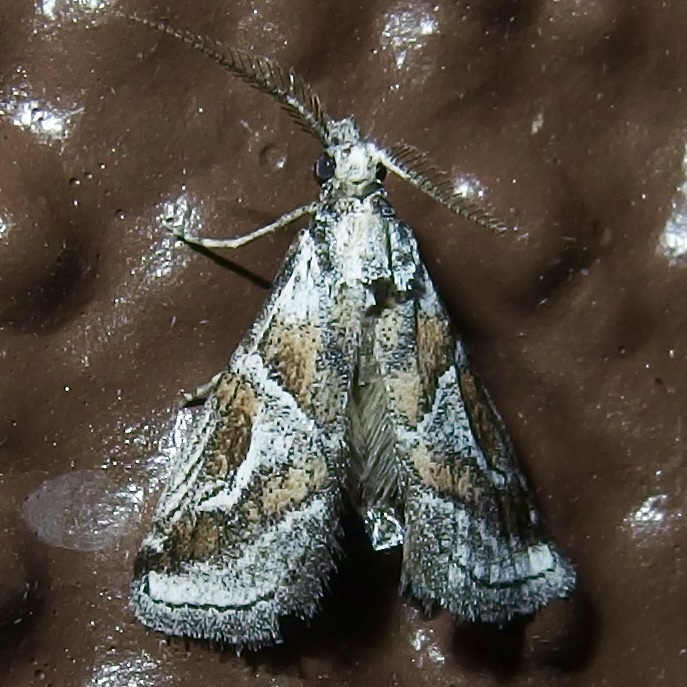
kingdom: Animalia
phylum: Arthropoda
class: Insecta
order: Lepidoptera
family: Pyralidae
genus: Alpheias
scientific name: Alpheias Decaturia pectinalis
